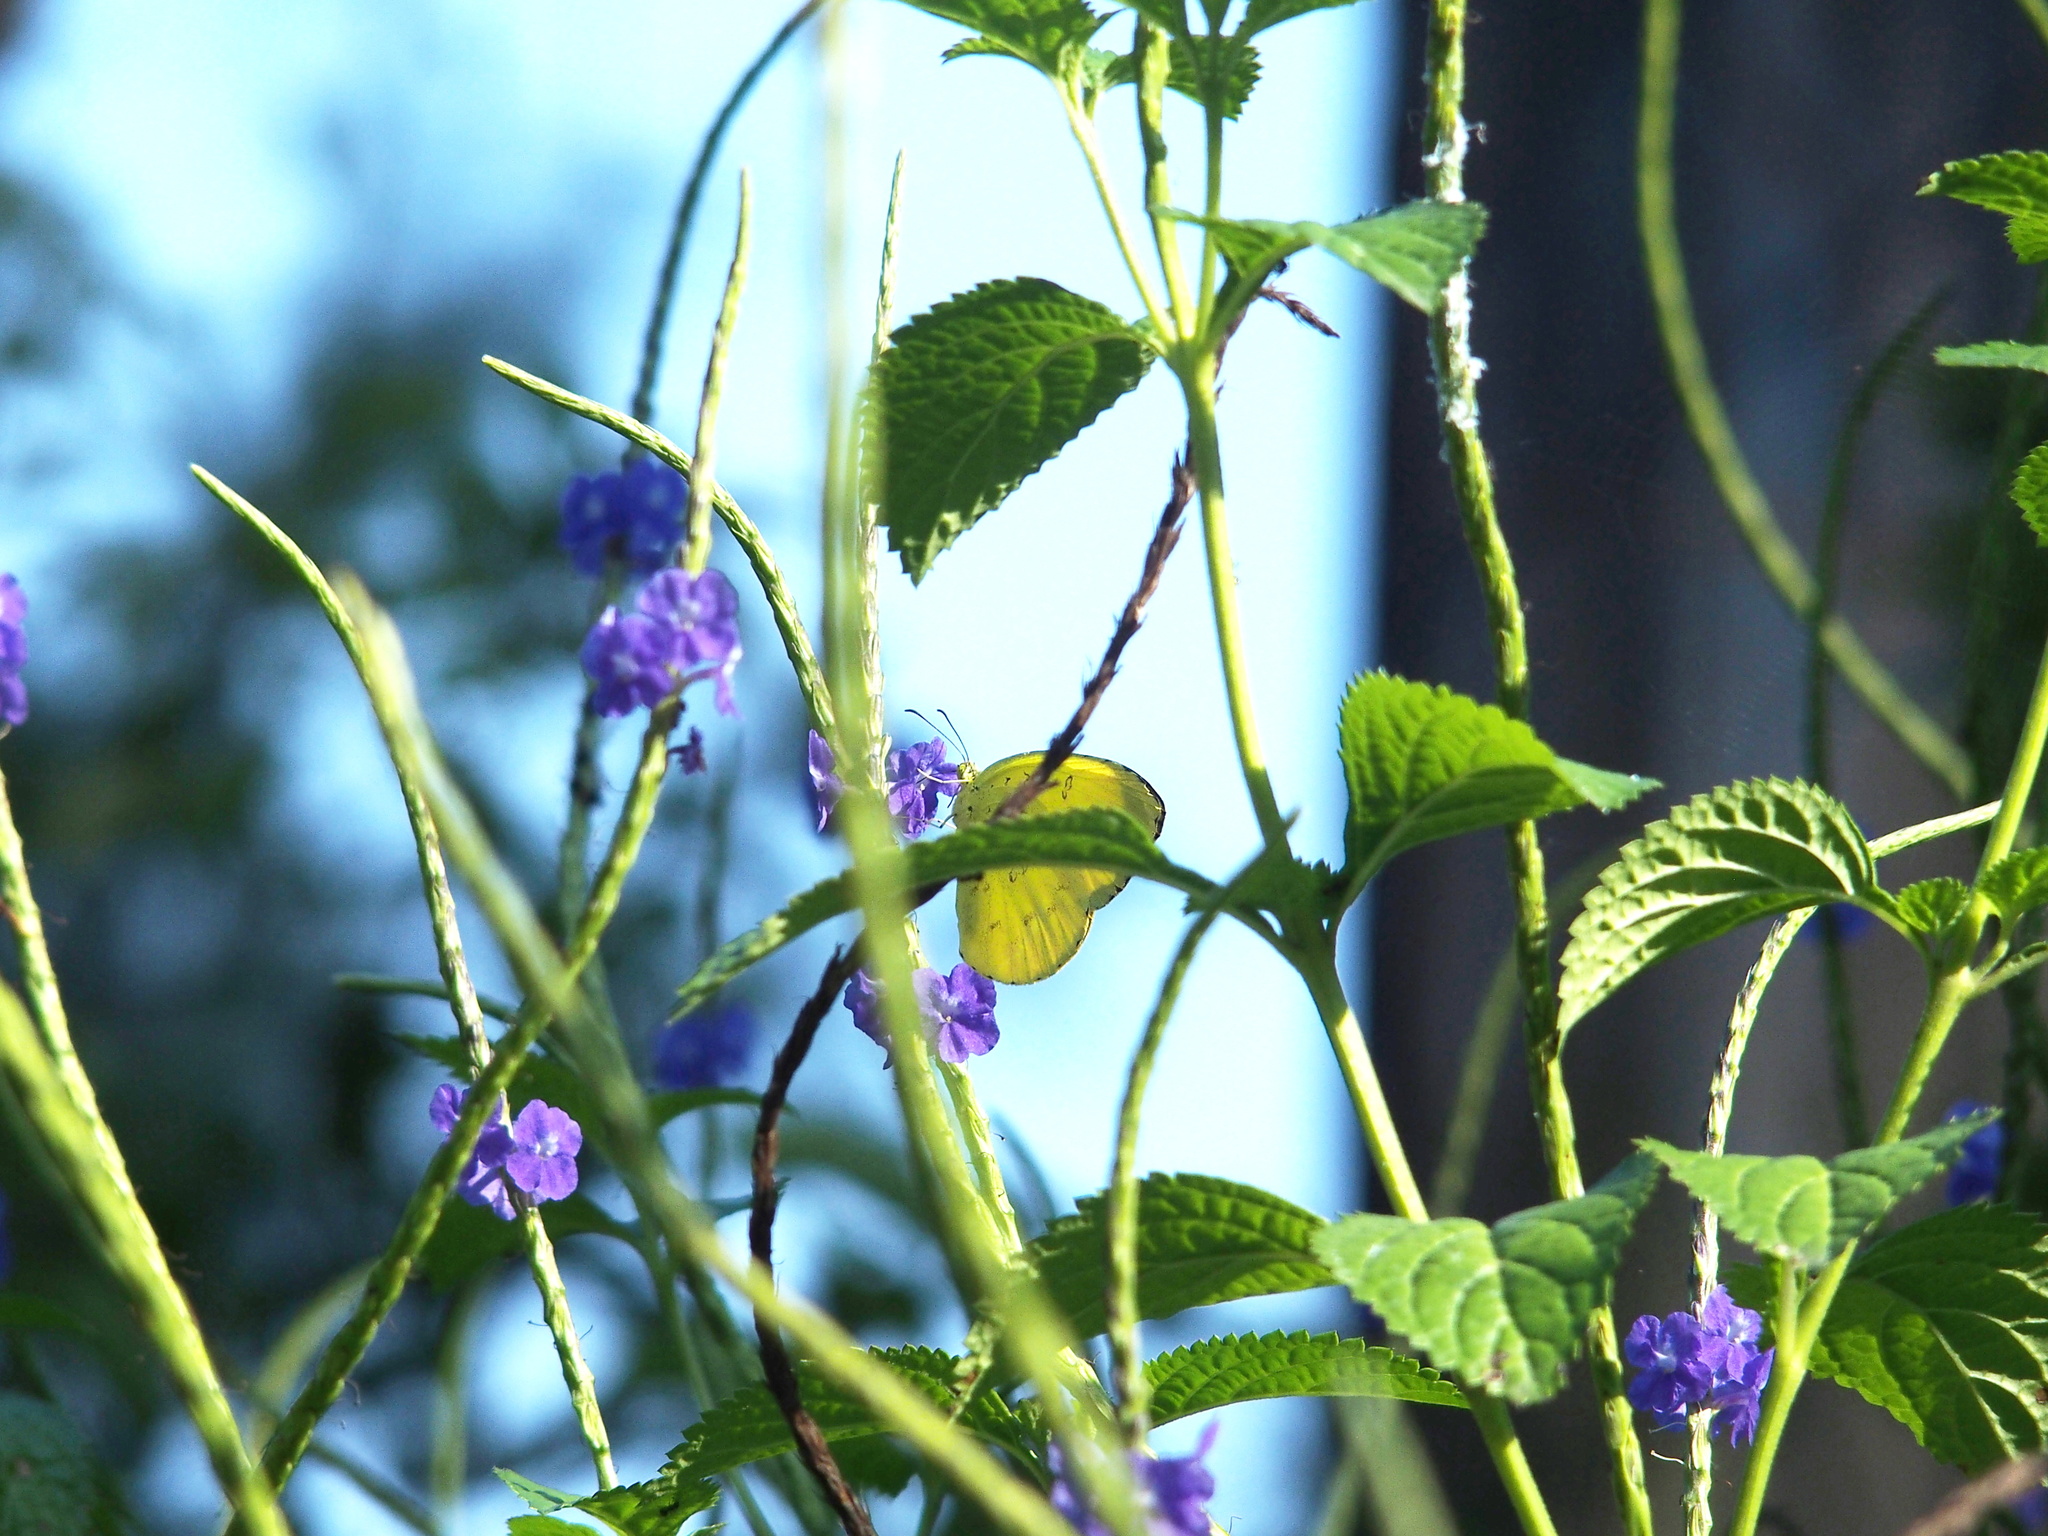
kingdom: Animalia
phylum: Arthropoda
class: Insecta
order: Lepidoptera
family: Pieridae
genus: Eurema
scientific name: Eurema blanda
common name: Three-spot grass yellow
